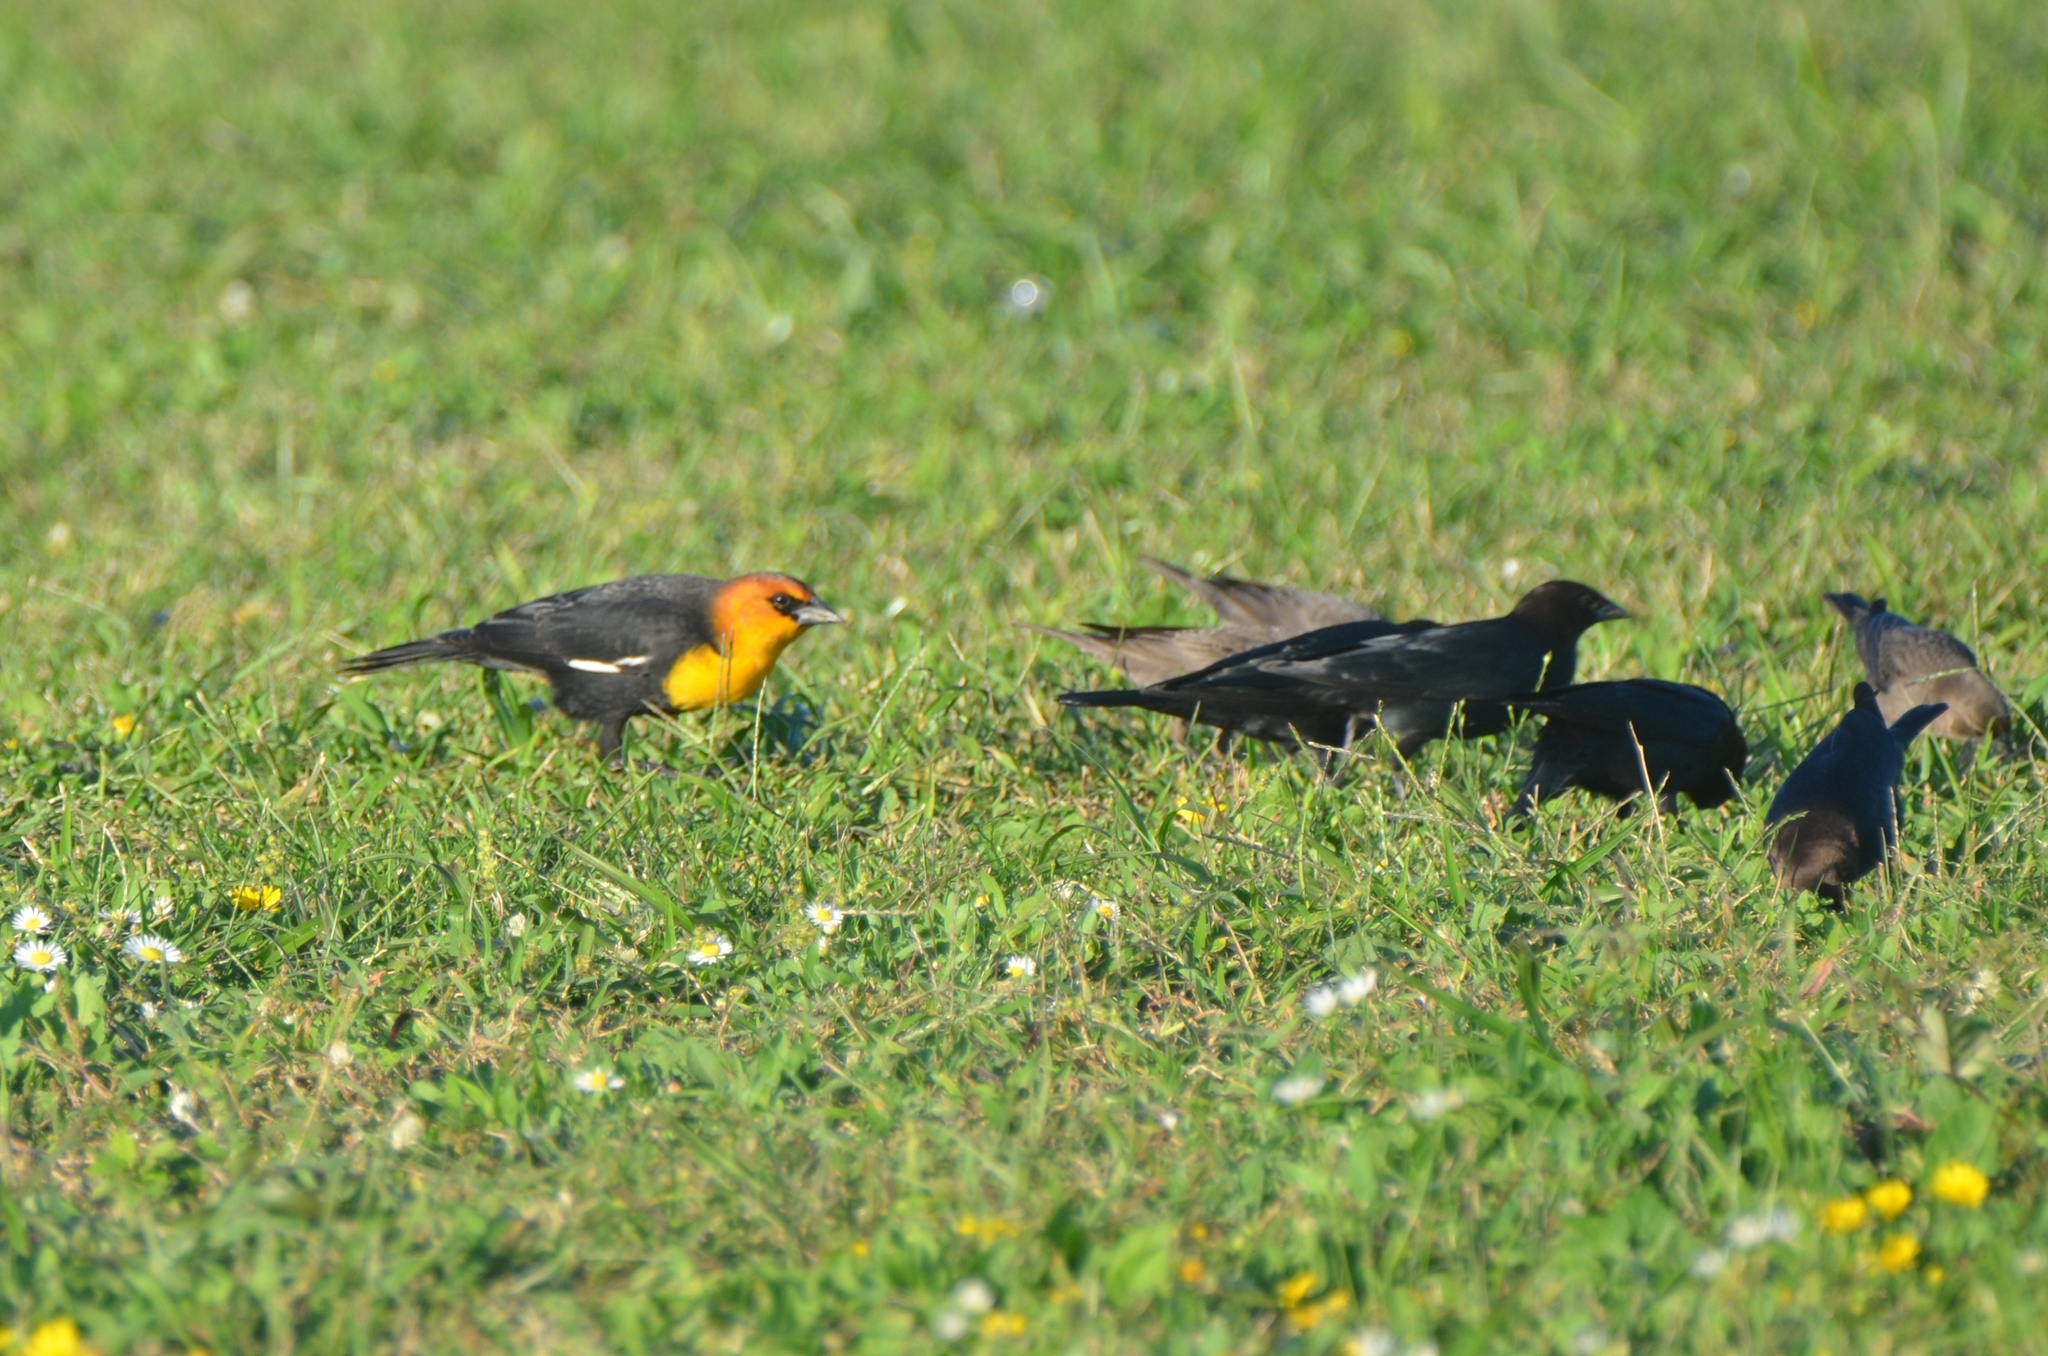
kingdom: Animalia
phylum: Chordata
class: Aves
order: Passeriformes
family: Icteridae
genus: Xanthocephalus
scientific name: Xanthocephalus xanthocephalus
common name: Yellow-headed blackbird
